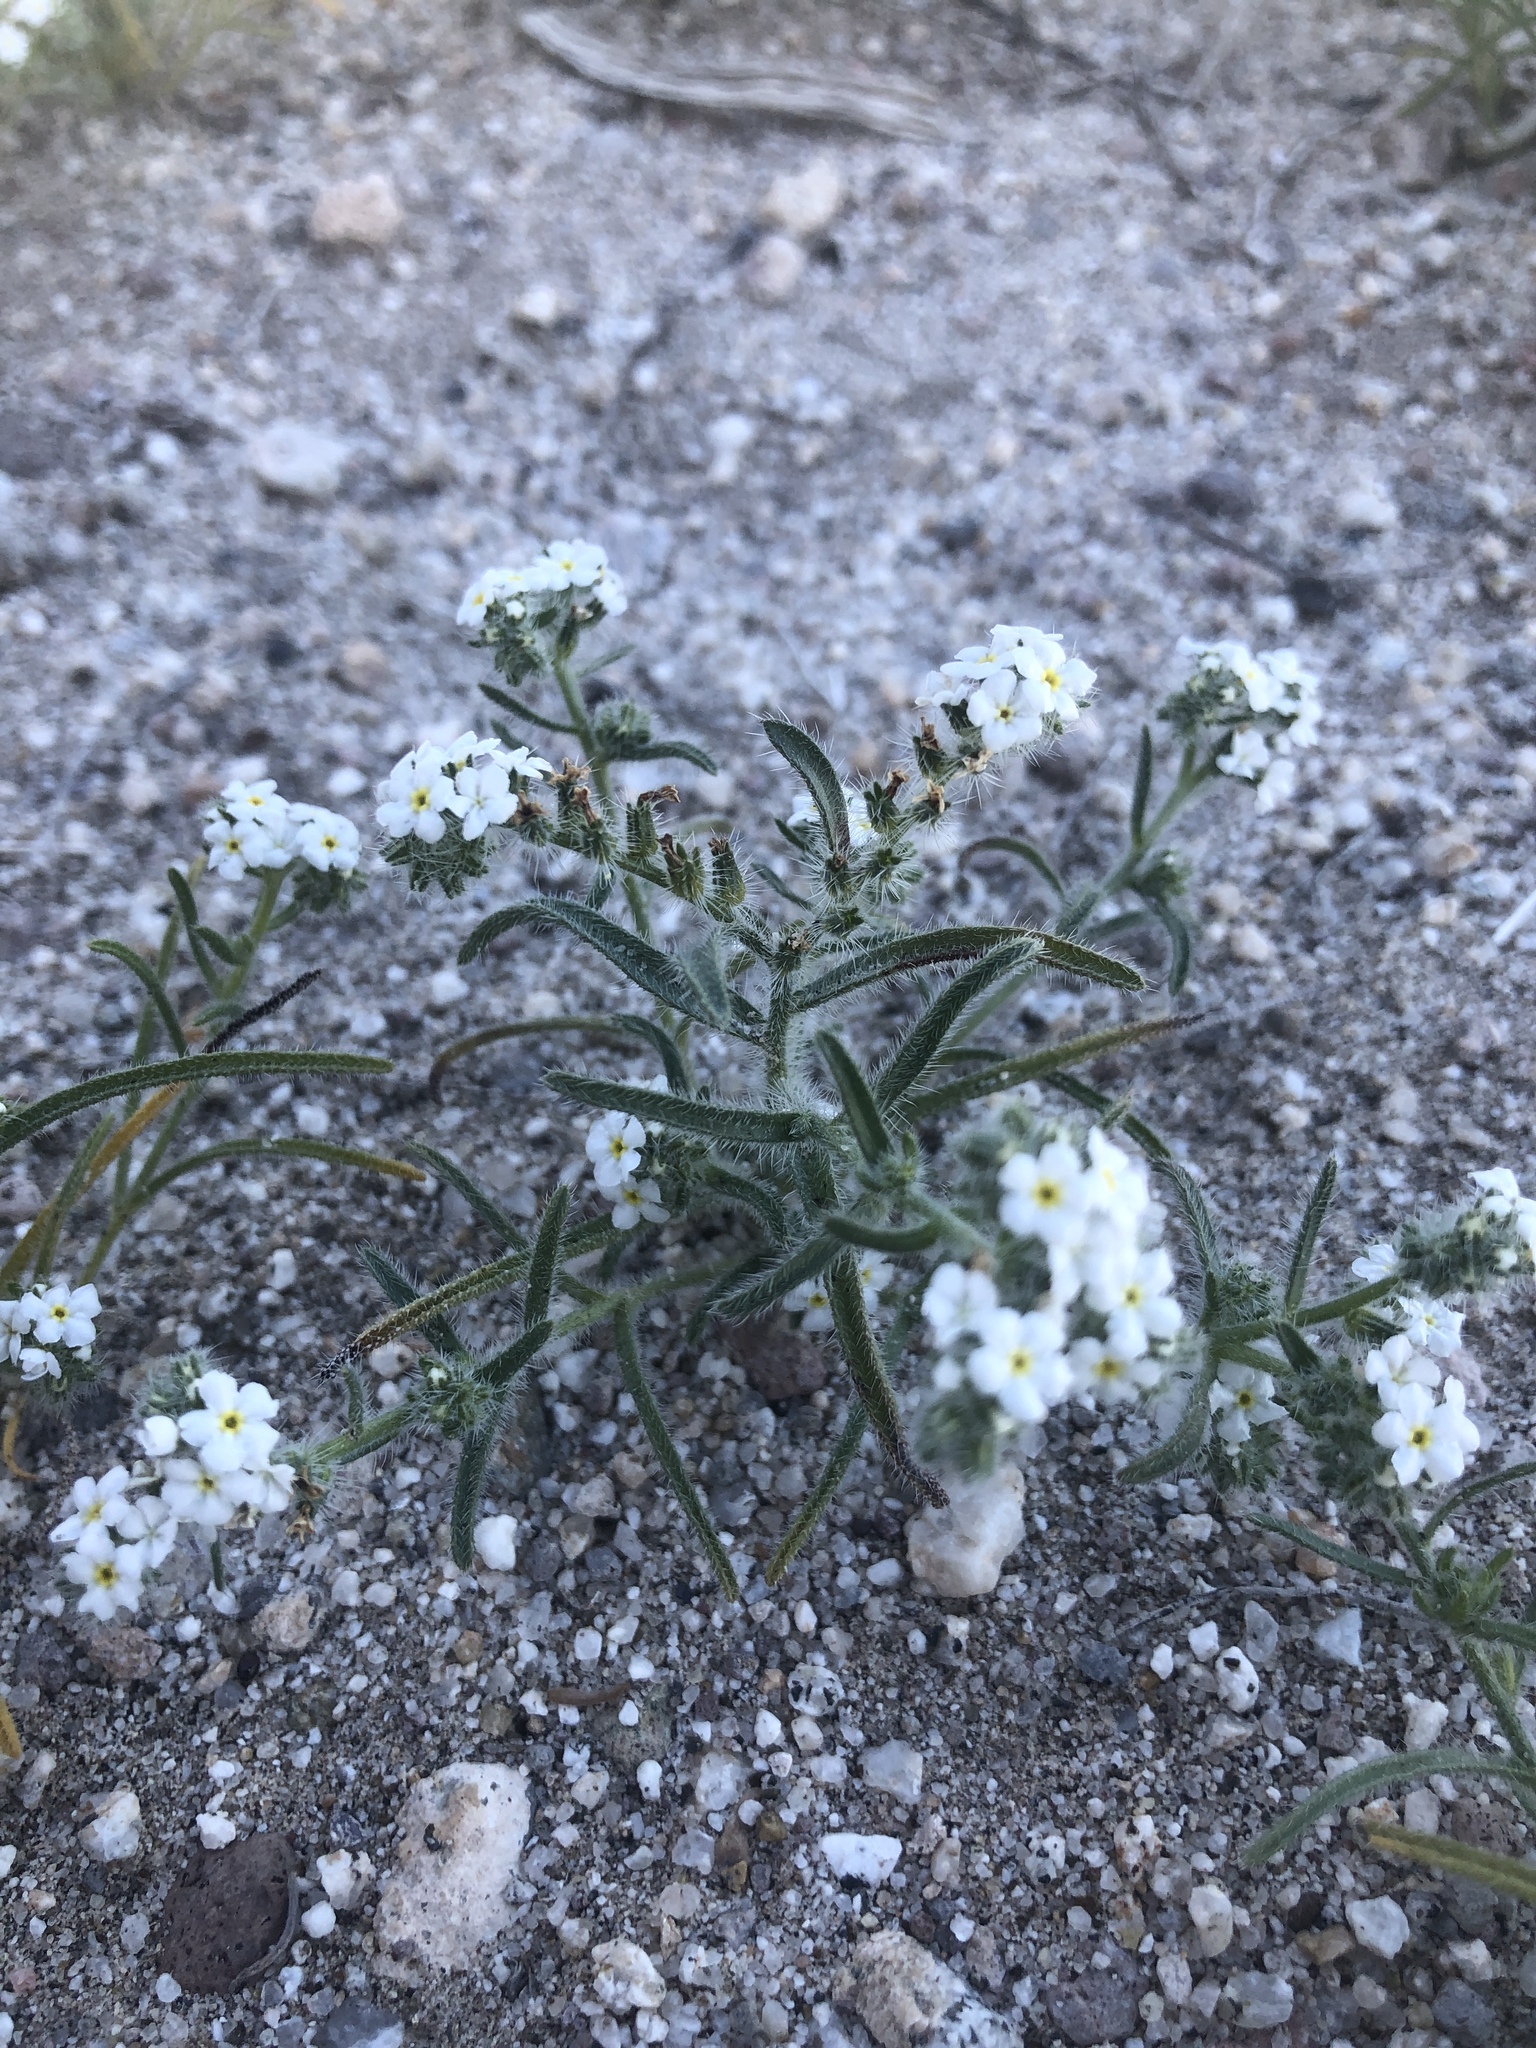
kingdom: Plantae
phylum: Tracheophyta
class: Magnoliopsida
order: Boraginales
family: Boraginaceae
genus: Johnstonella
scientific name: Johnstonella angustifolia
